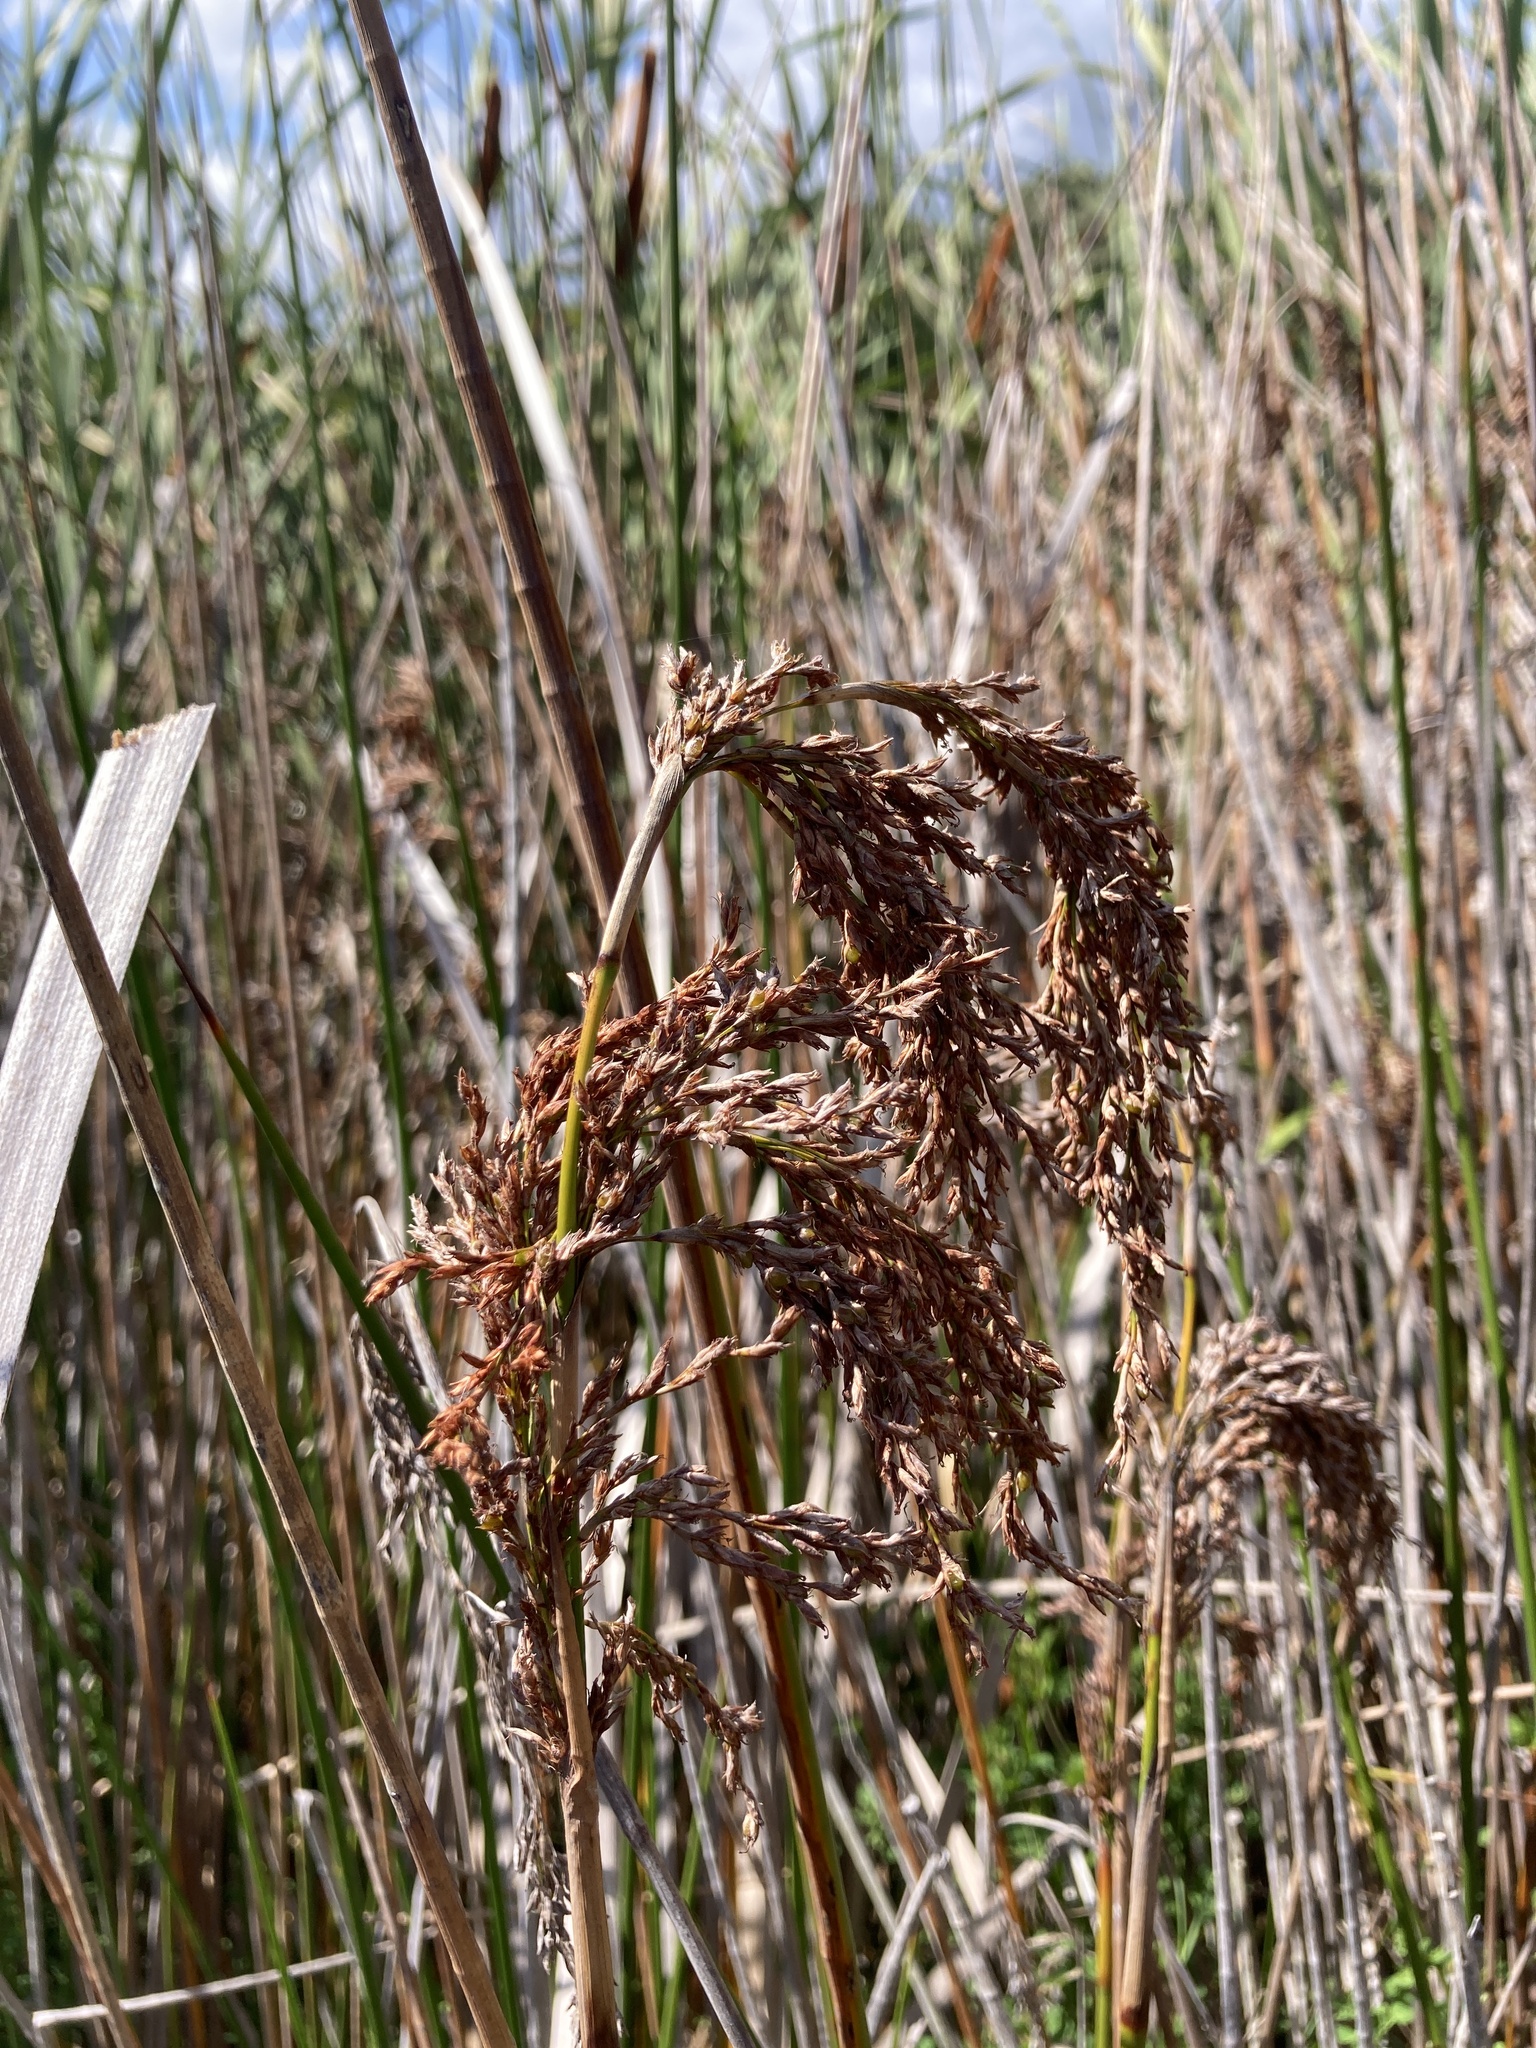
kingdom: Plantae
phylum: Tracheophyta
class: Liliopsida
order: Poales
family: Cyperaceae
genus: Machaerina
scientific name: Machaerina articulata
